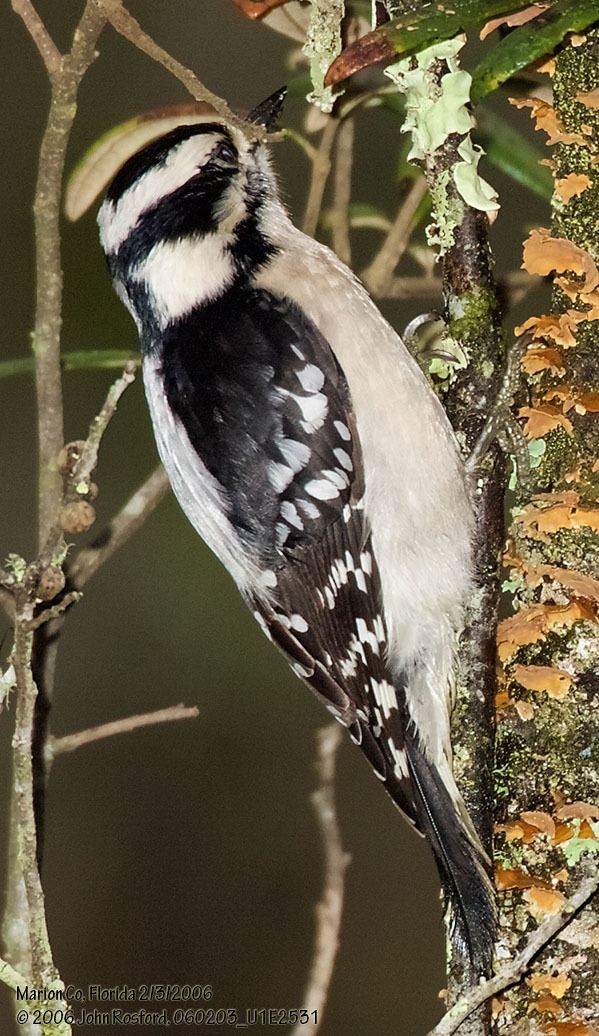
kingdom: Animalia
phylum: Chordata
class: Aves
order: Piciformes
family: Picidae
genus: Dryobates
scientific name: Dryobates pubescens
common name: Downy woodpecker
